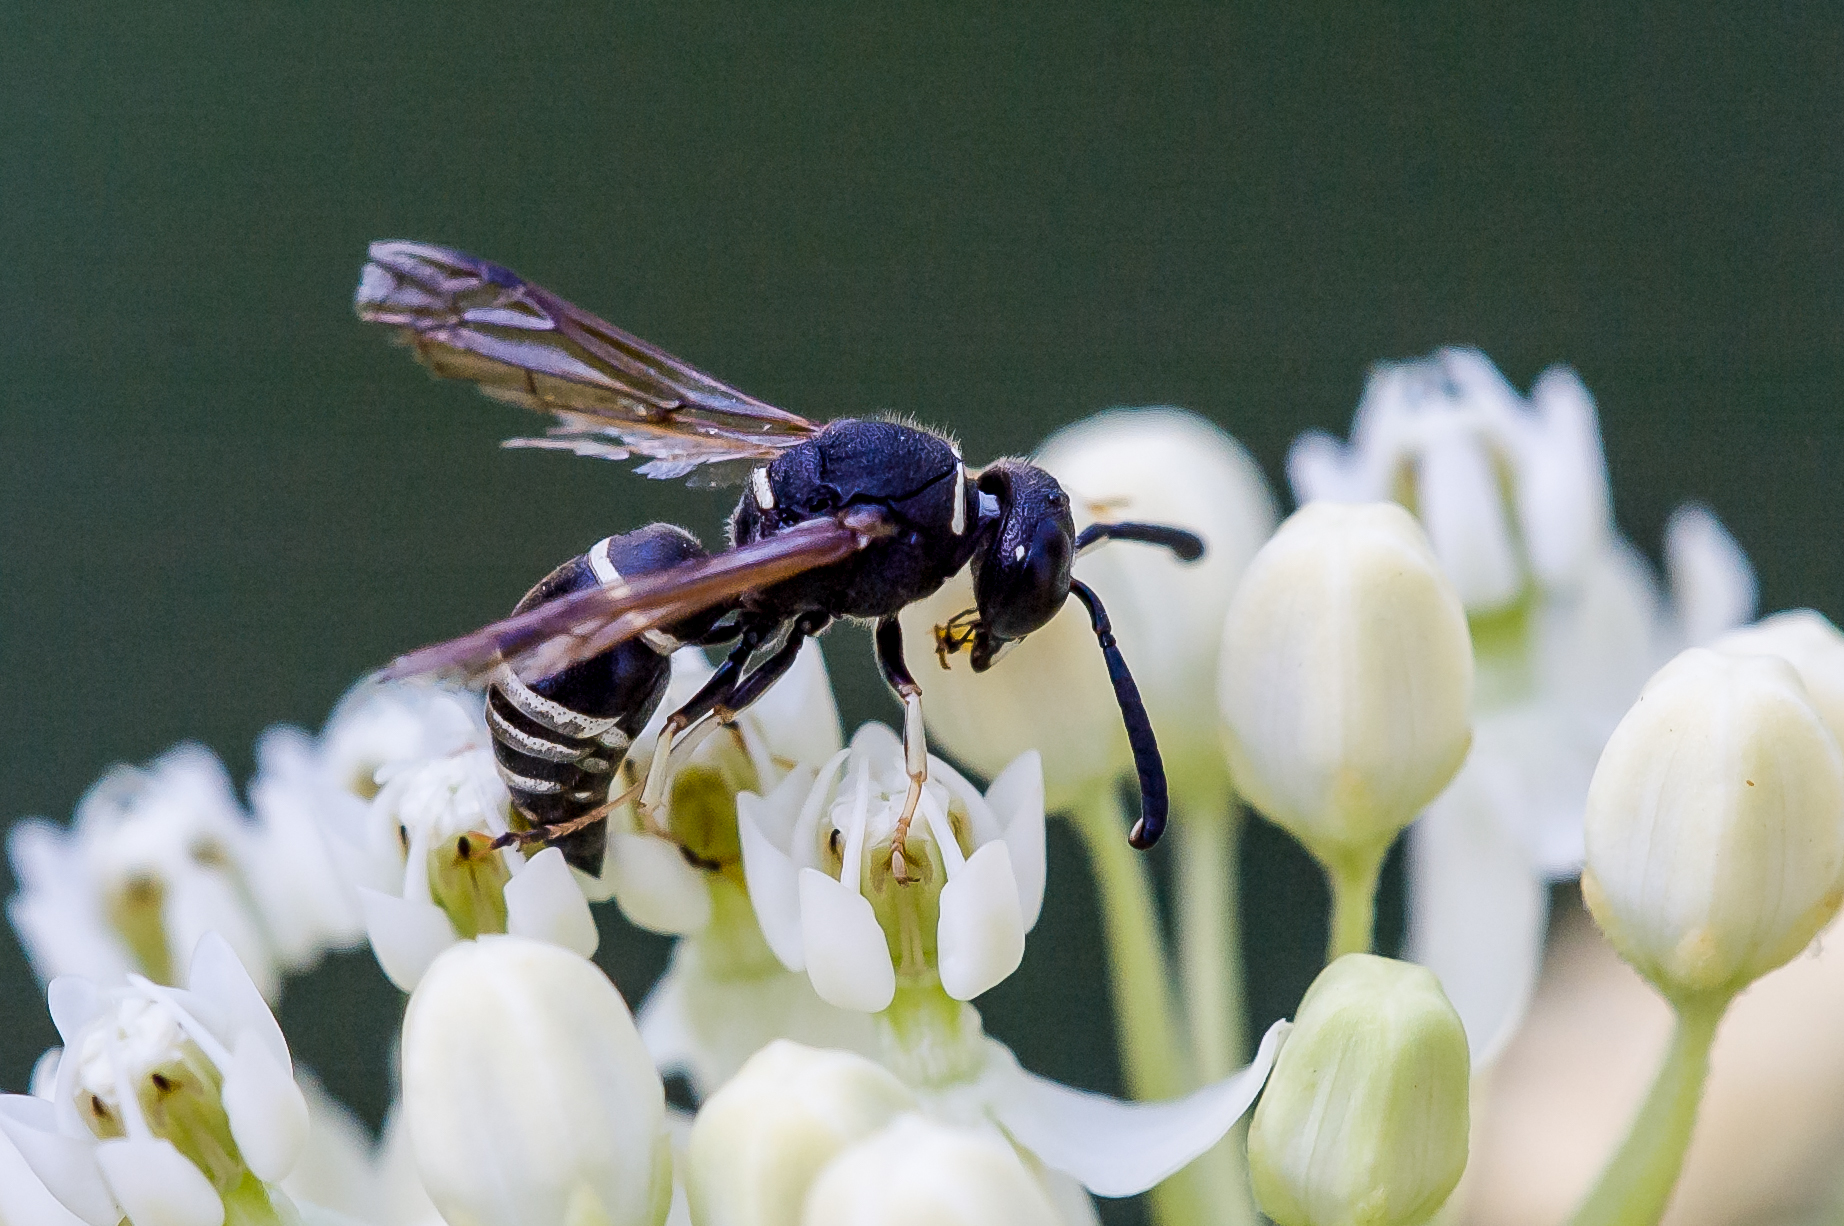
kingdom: Animalia
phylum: Arthropoda
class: Insecta
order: Hymenoptera
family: Eumenidae
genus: Euodynerus
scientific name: Euodynerus leucomelas
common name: Wasp
